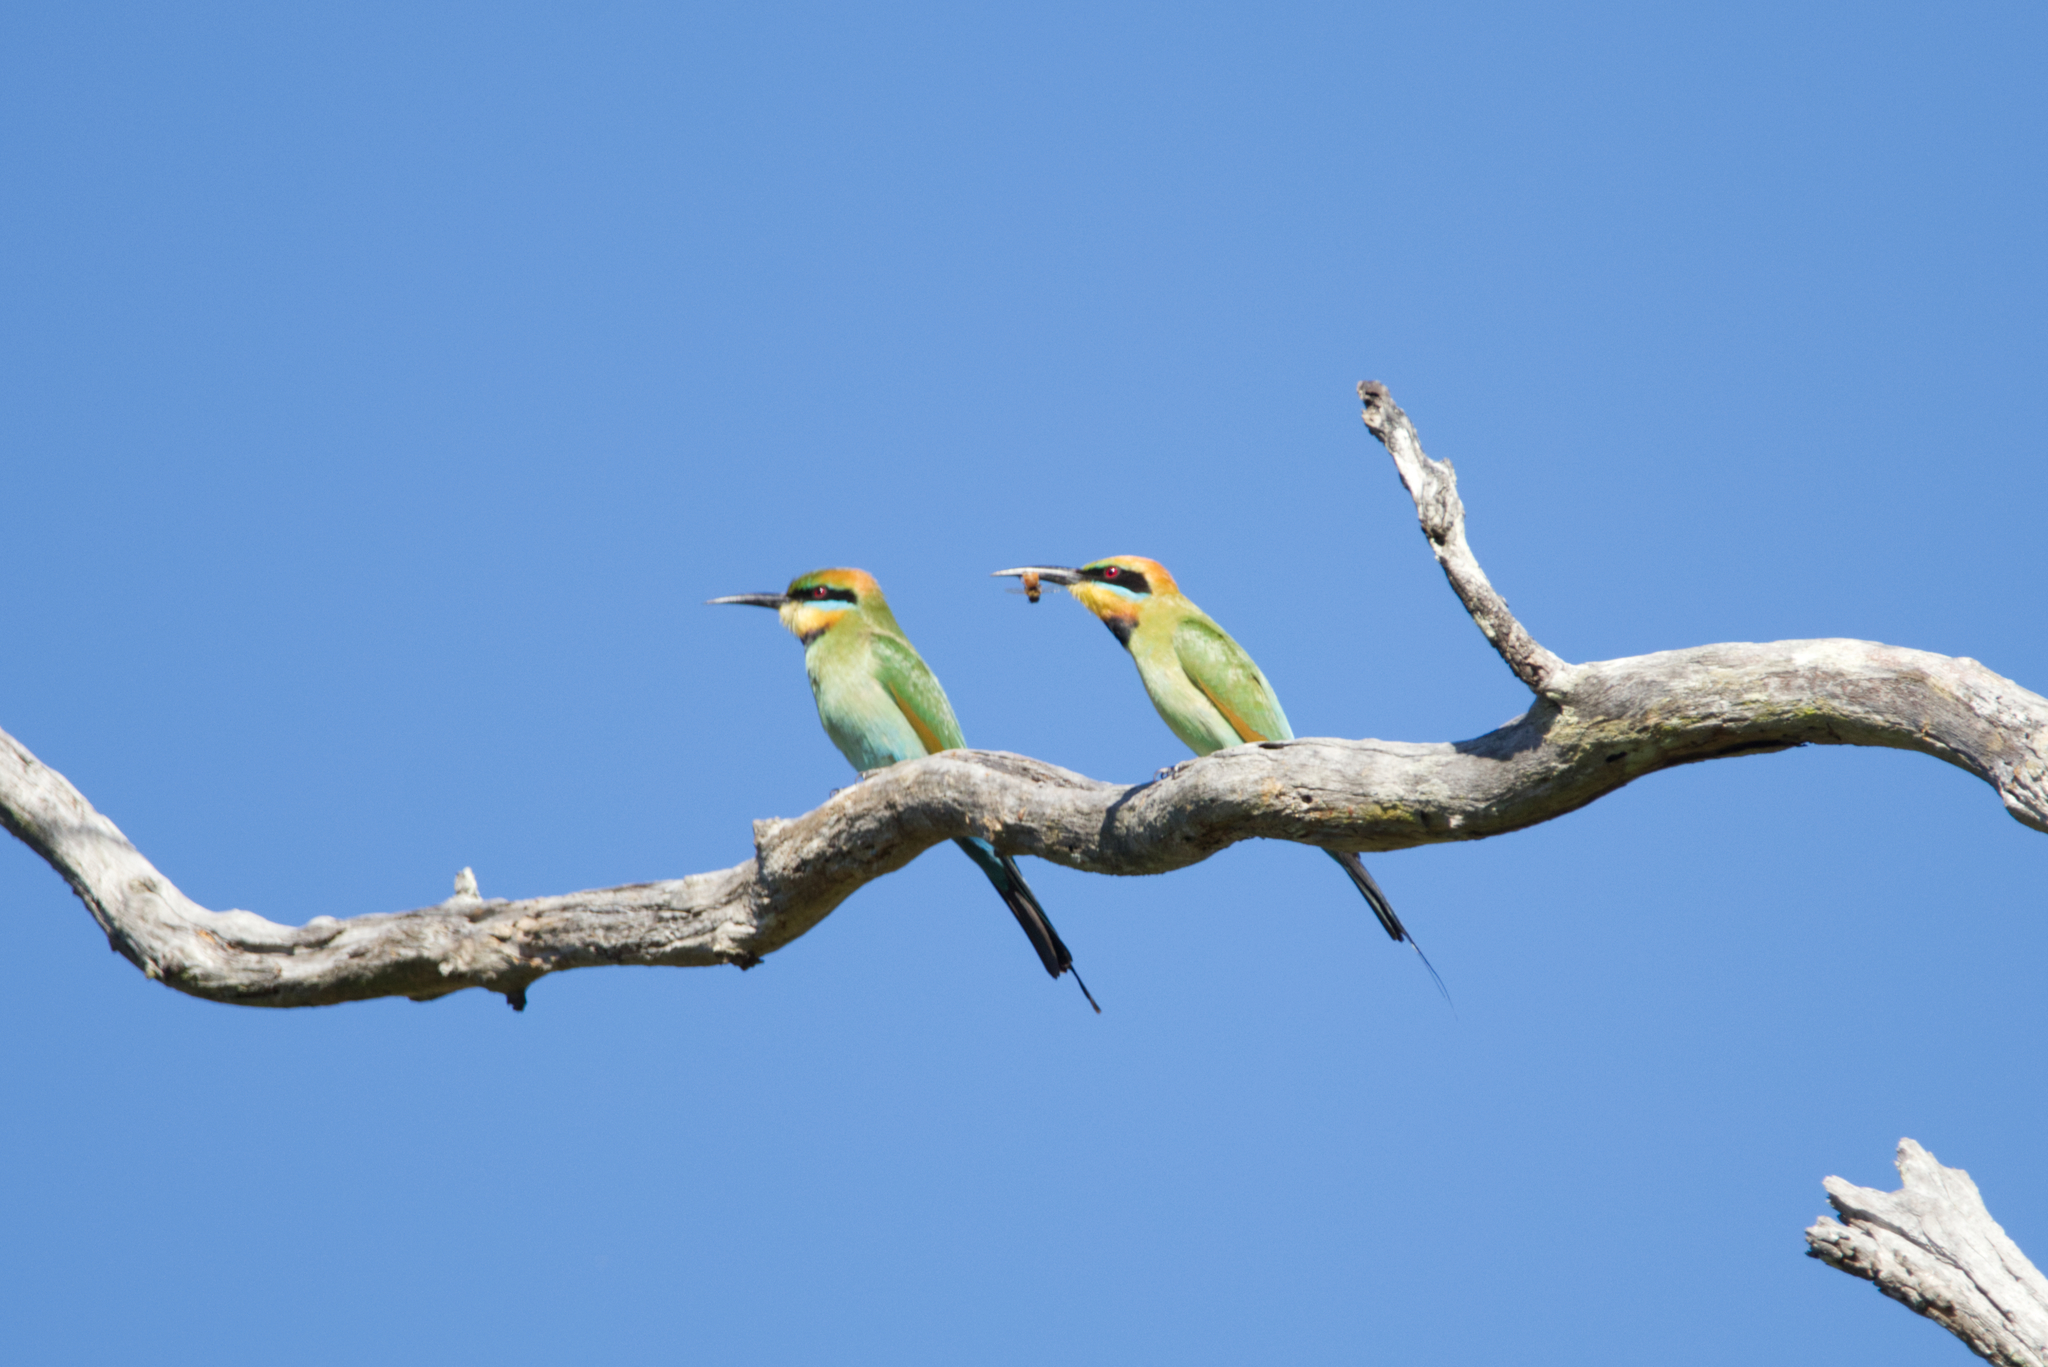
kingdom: Animalia
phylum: Chordata
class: Aves
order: Coraciiformes
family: Meropidae
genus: Merops
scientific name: Merops ornatus
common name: Rainbow bee-eater
